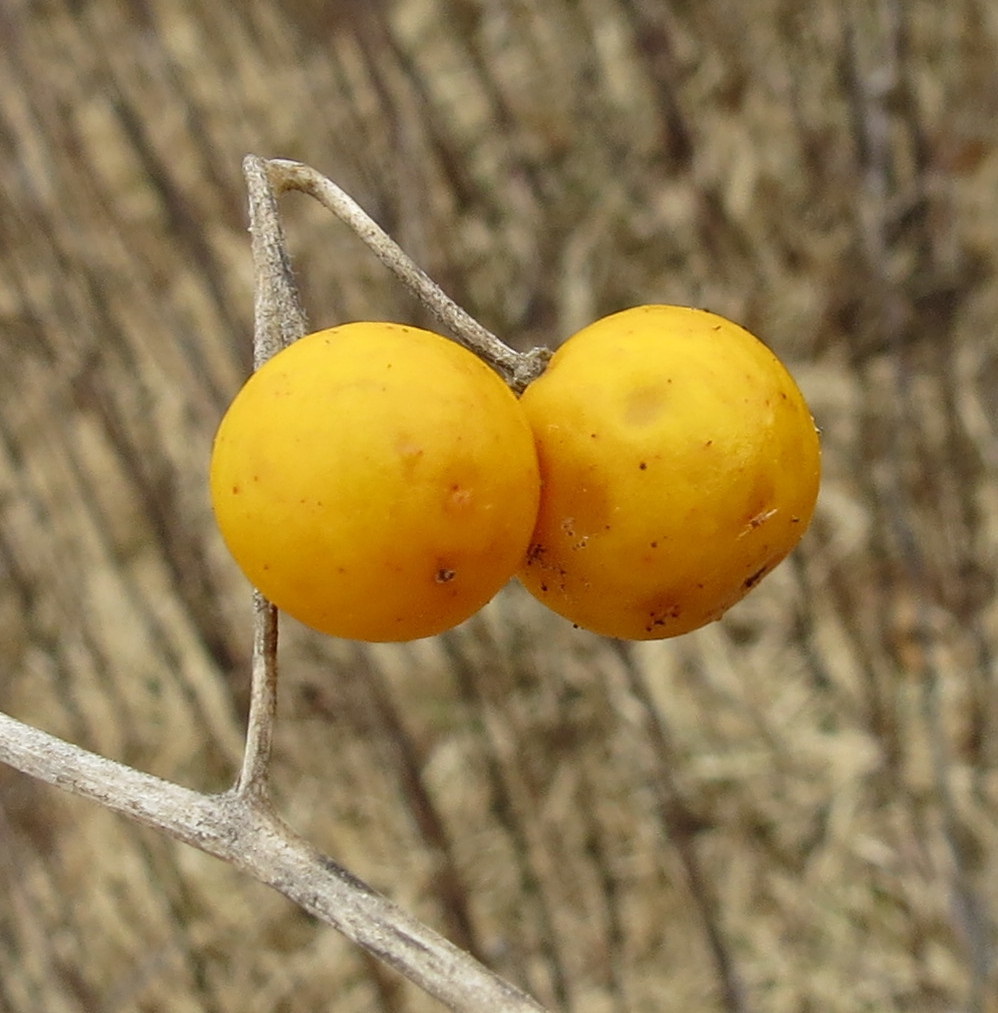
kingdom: Plantae
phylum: Tracheophyta
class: Magnoliopsida
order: Solanales
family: Solanaceae
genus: Solanum
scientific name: Solanum carolinense
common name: Horse-nettle
